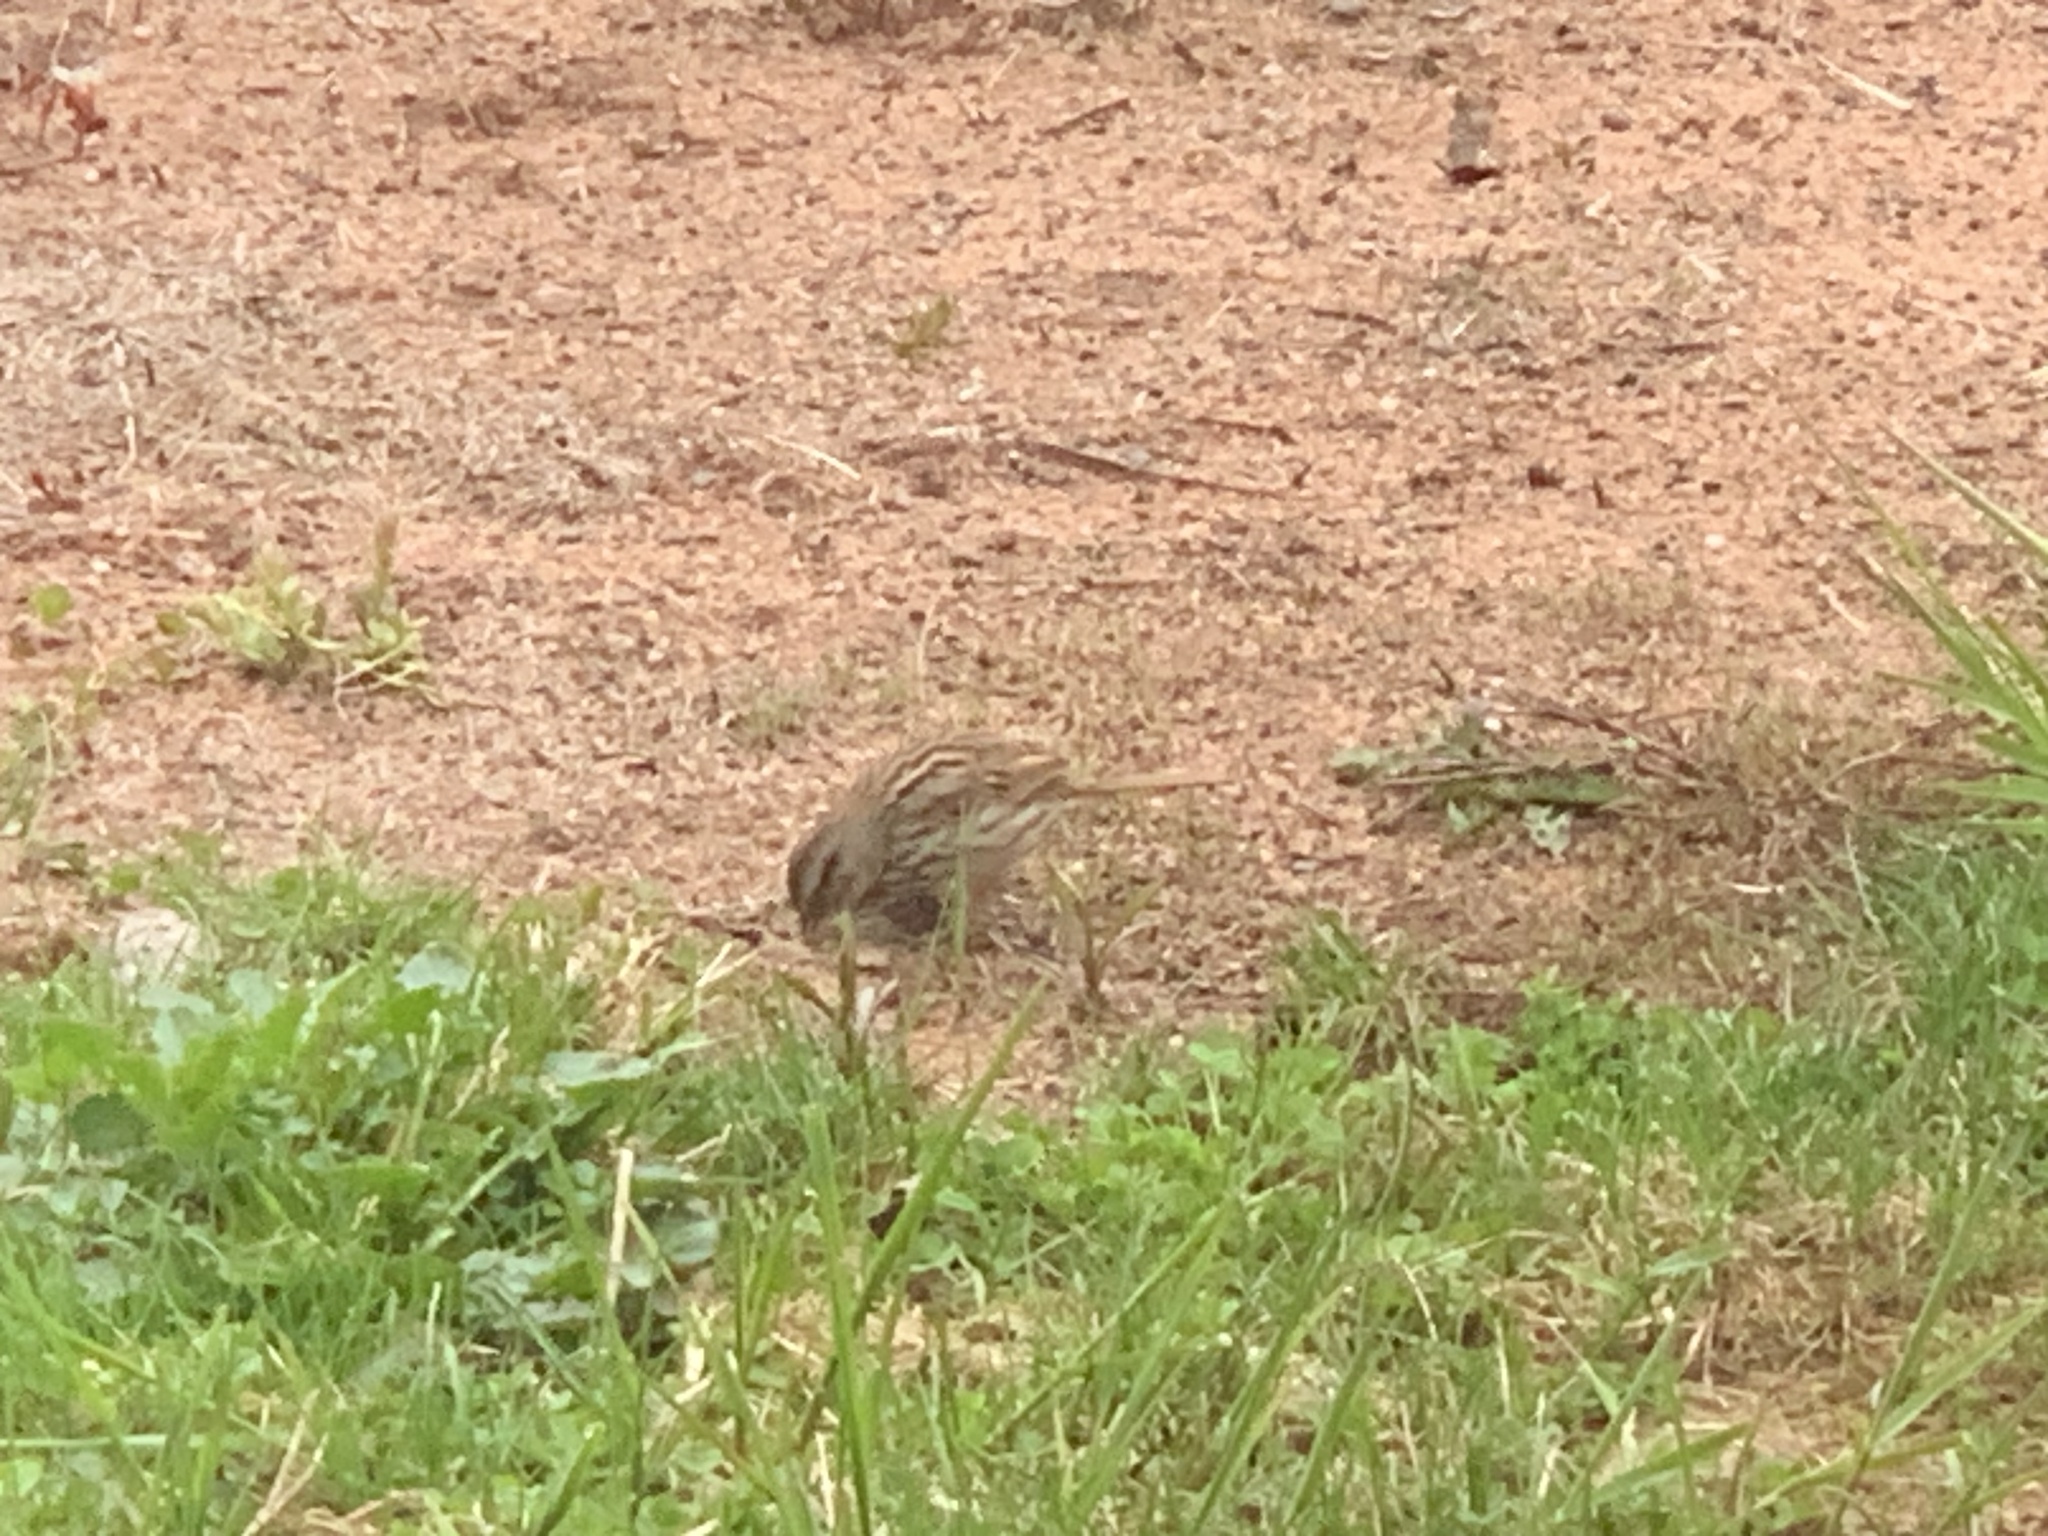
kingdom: Animalia
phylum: Chordata
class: Aves
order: Passeriformes
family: Passerellidae
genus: Melospiza
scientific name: Melospiza melodia
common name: Song sparrow
